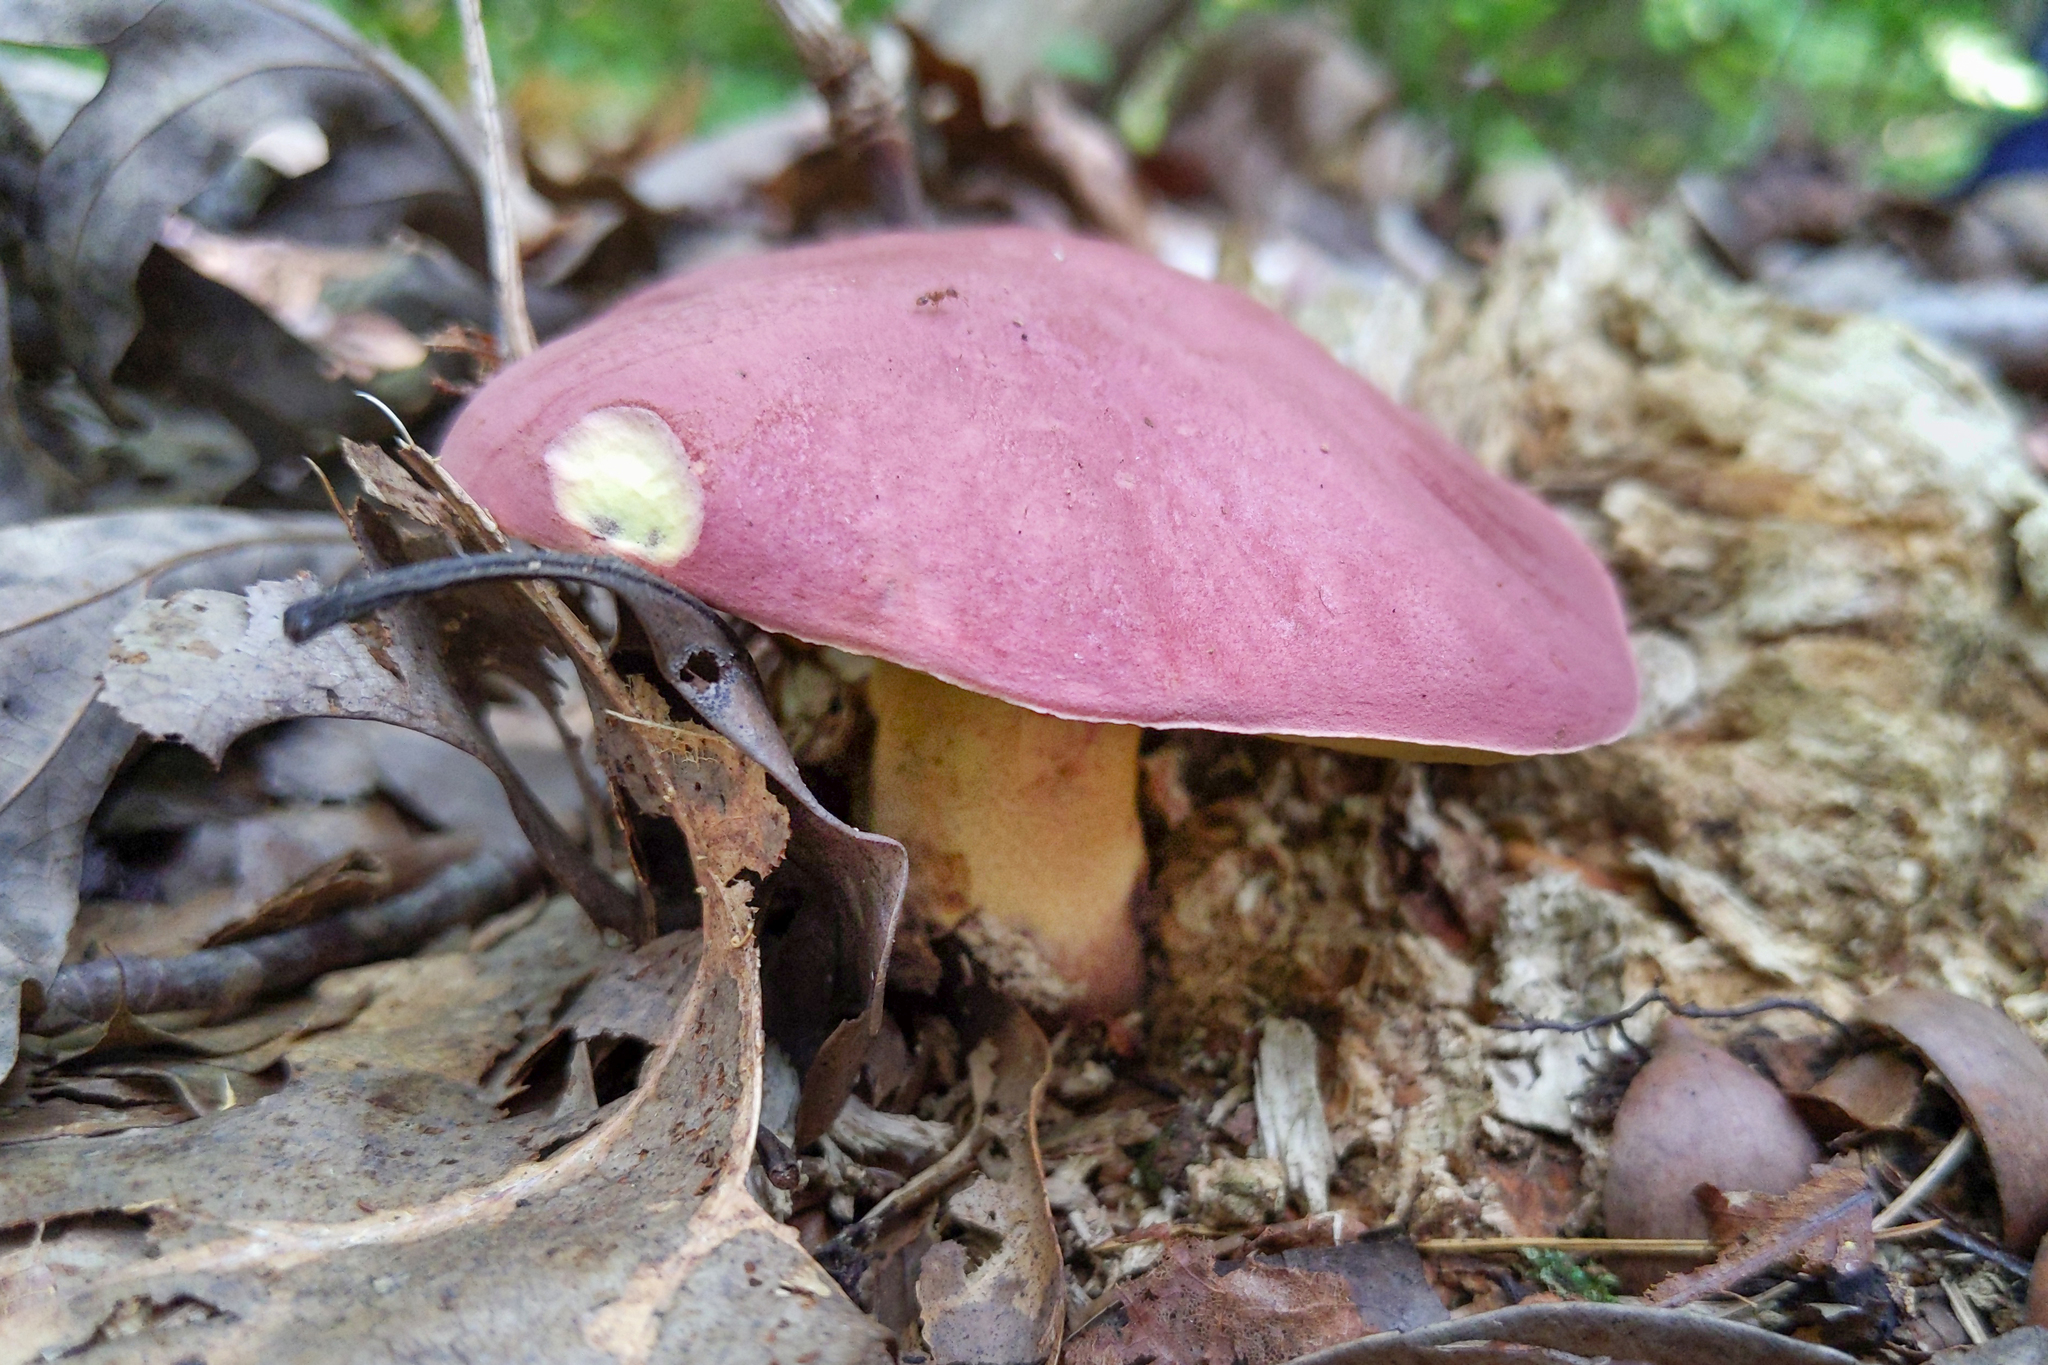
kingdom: Fungi
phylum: Basidiomycota
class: Agaricomycetes
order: Boletales
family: Boletaceae
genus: Harrya
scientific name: Harrya chromipes
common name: Chrome-footed bolete
